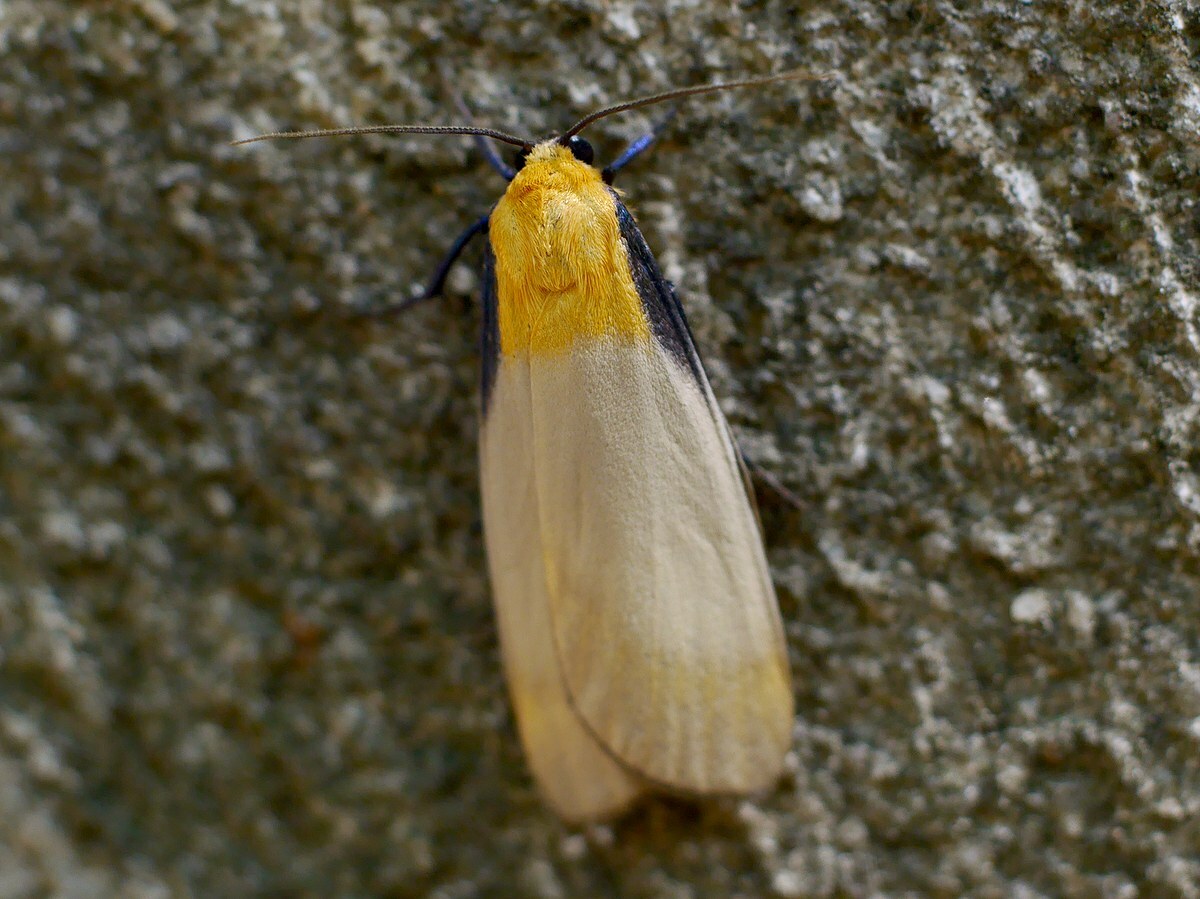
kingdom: Animalia
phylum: Arthropoda
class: Insecta
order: Lepidoptera
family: Erebidae
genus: Lithosia
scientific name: Lithosia quadra
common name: Four-spotted footman
